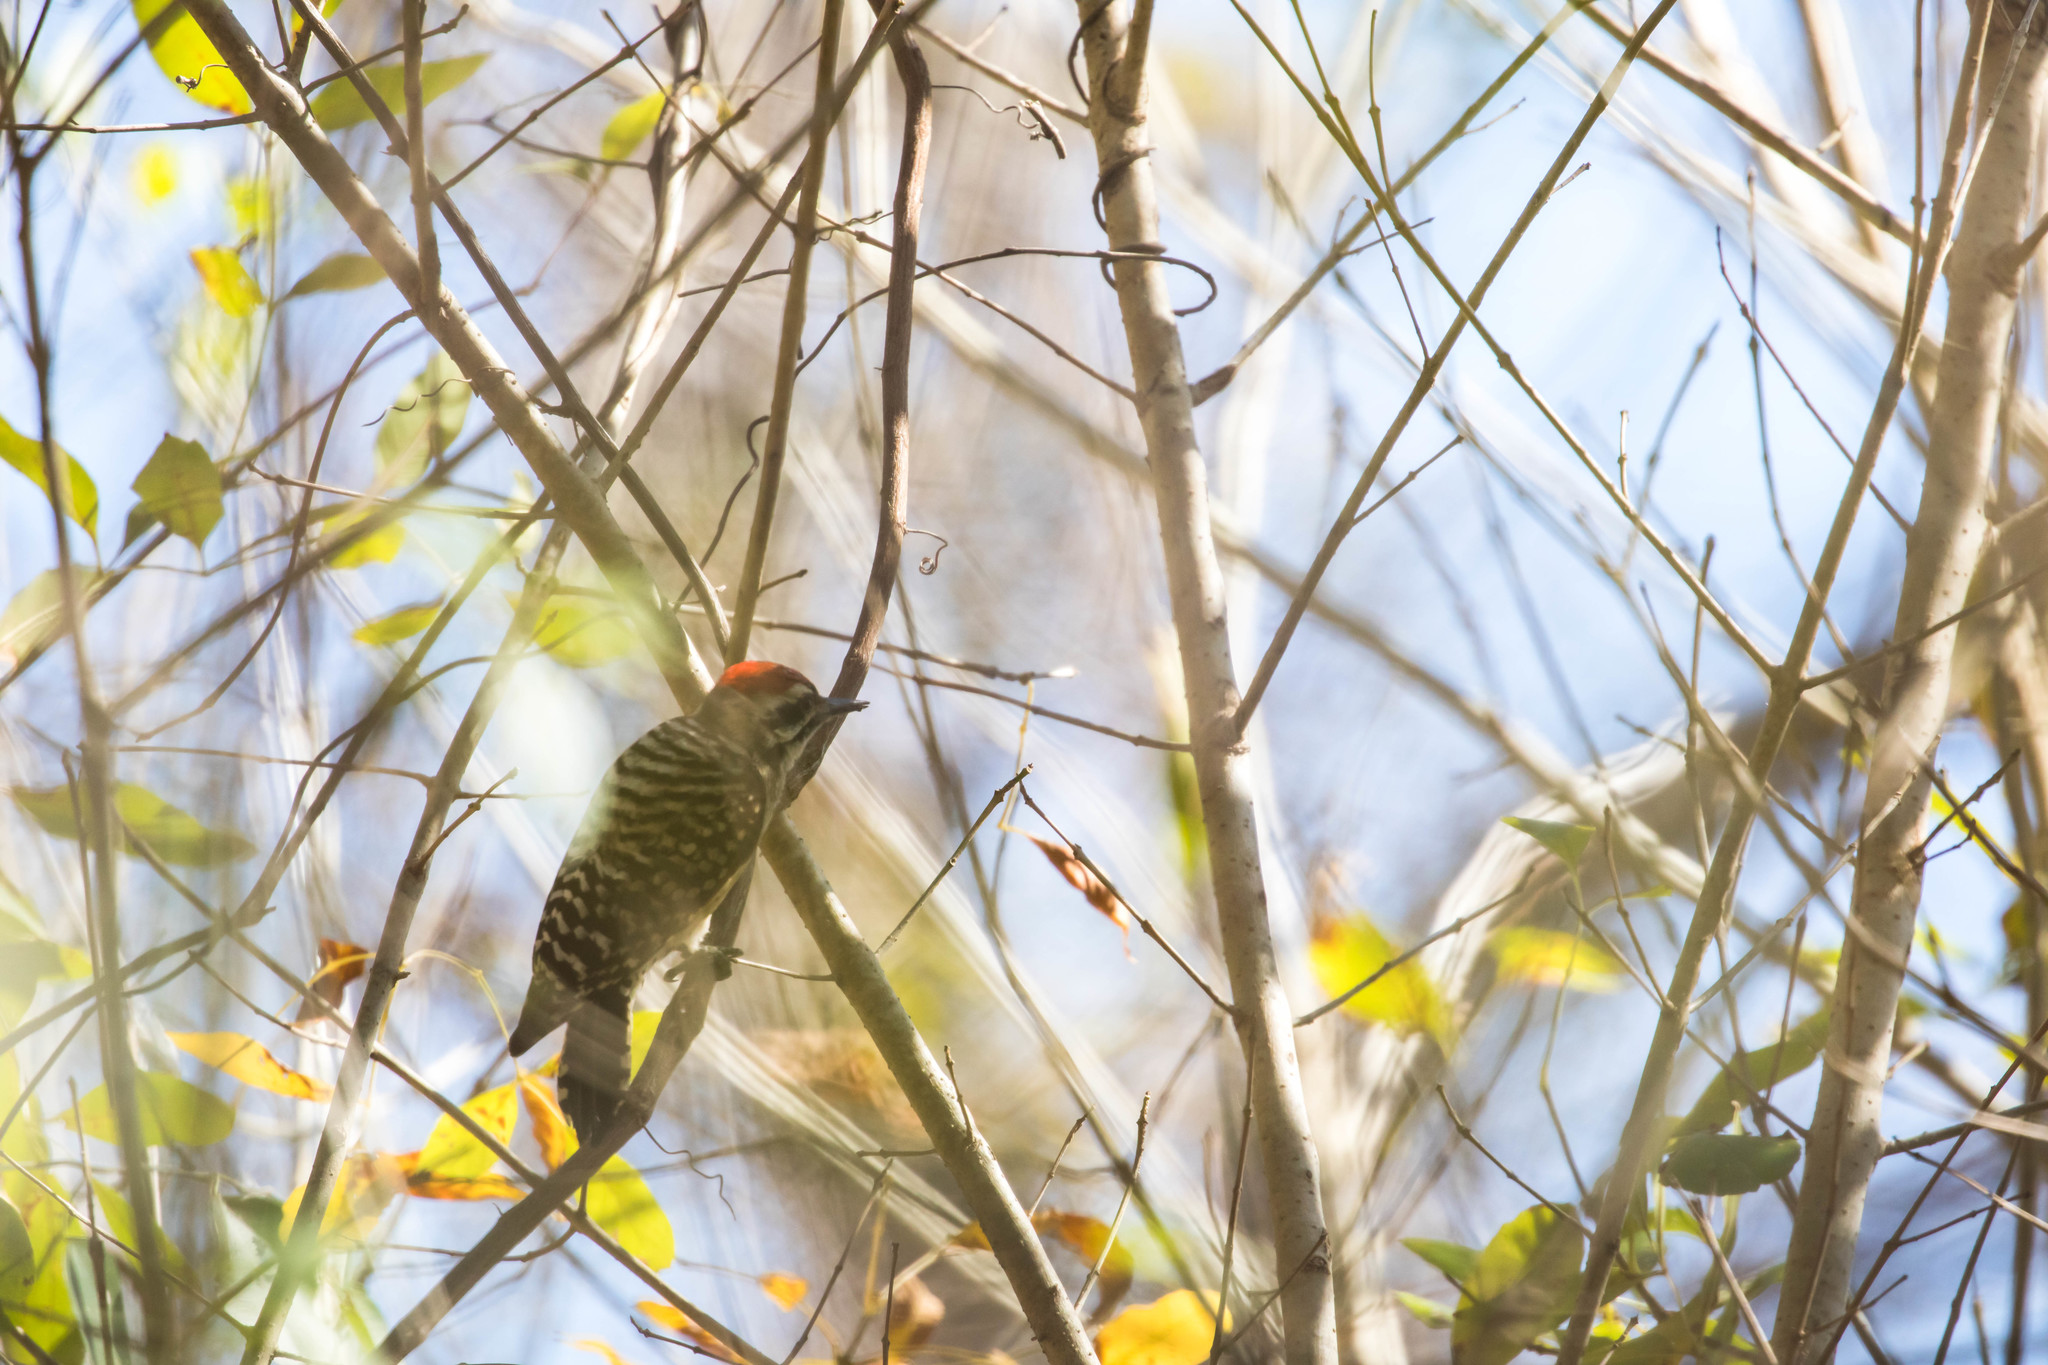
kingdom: Animalia
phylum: Chordata
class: Aves
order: Piciformes
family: Picidae
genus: Dryobates
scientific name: Dryobates scalaris
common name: Ladder-backed woodpecker
